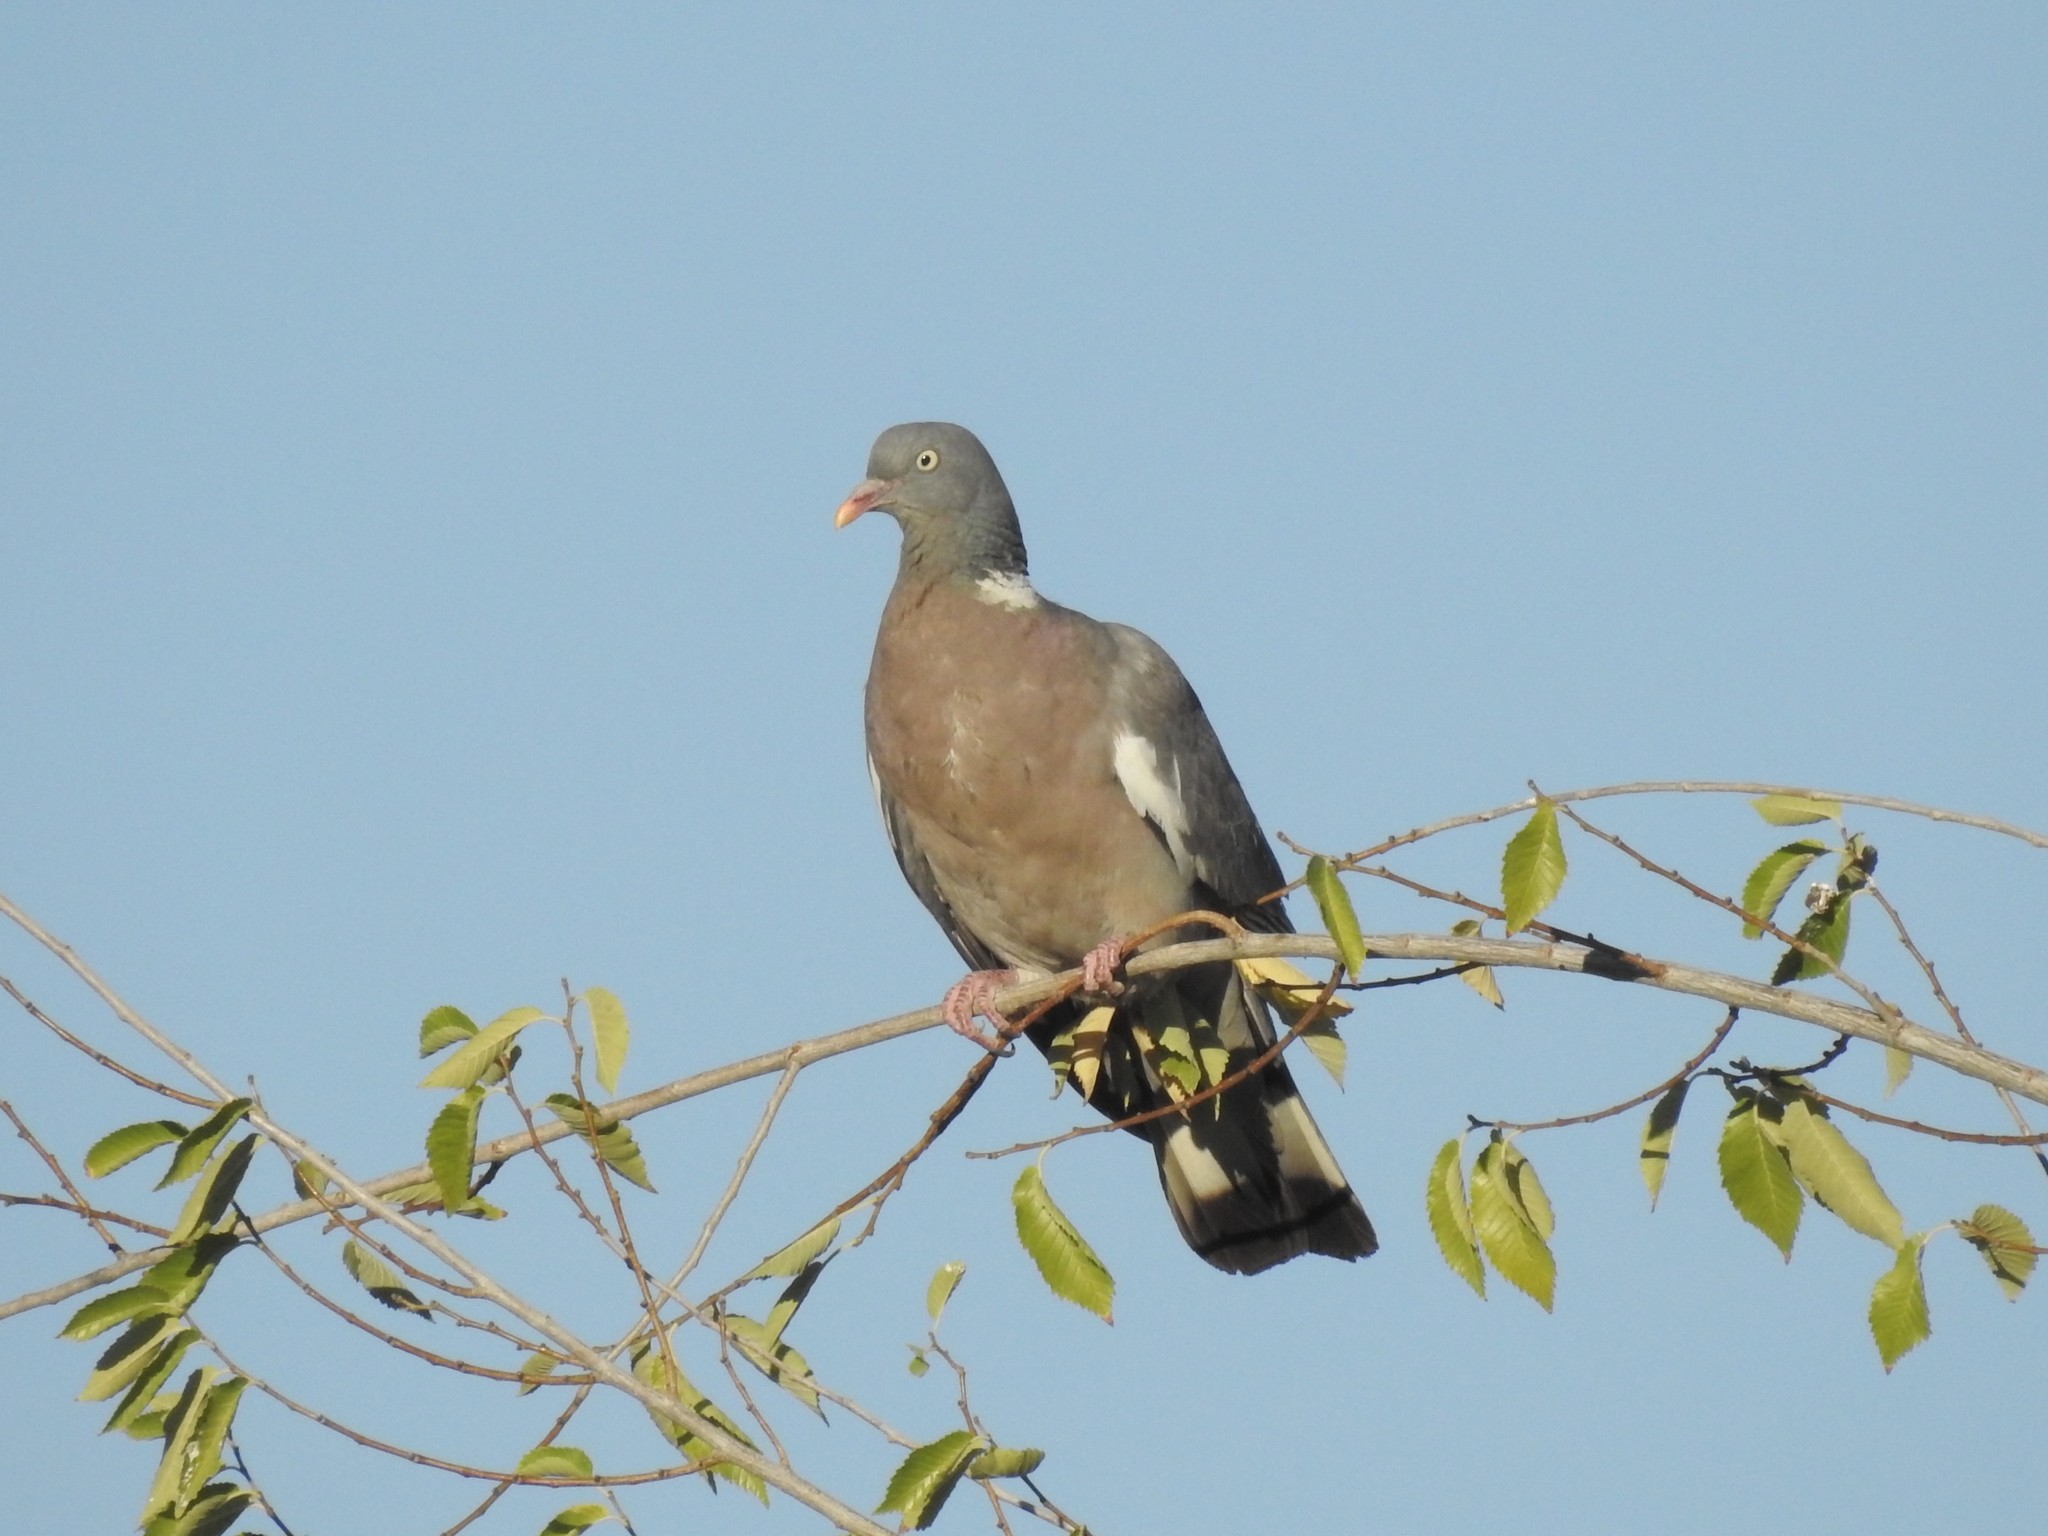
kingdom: Animalia
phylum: Chordata
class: Aves
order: Columbiformes
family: Columbidae
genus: Columba
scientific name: Columba palumbus
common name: Common wood pigeon
